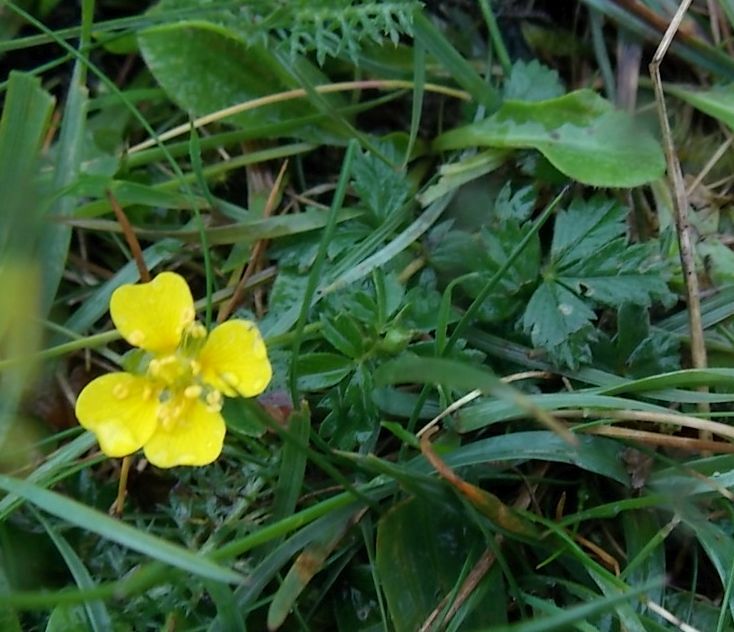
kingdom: Plantae
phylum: Tracheophyta
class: Magnoliopsida
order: Rosales
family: Rosaceae
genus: Potentilla
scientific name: Potentilla erecta
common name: Tormentil
